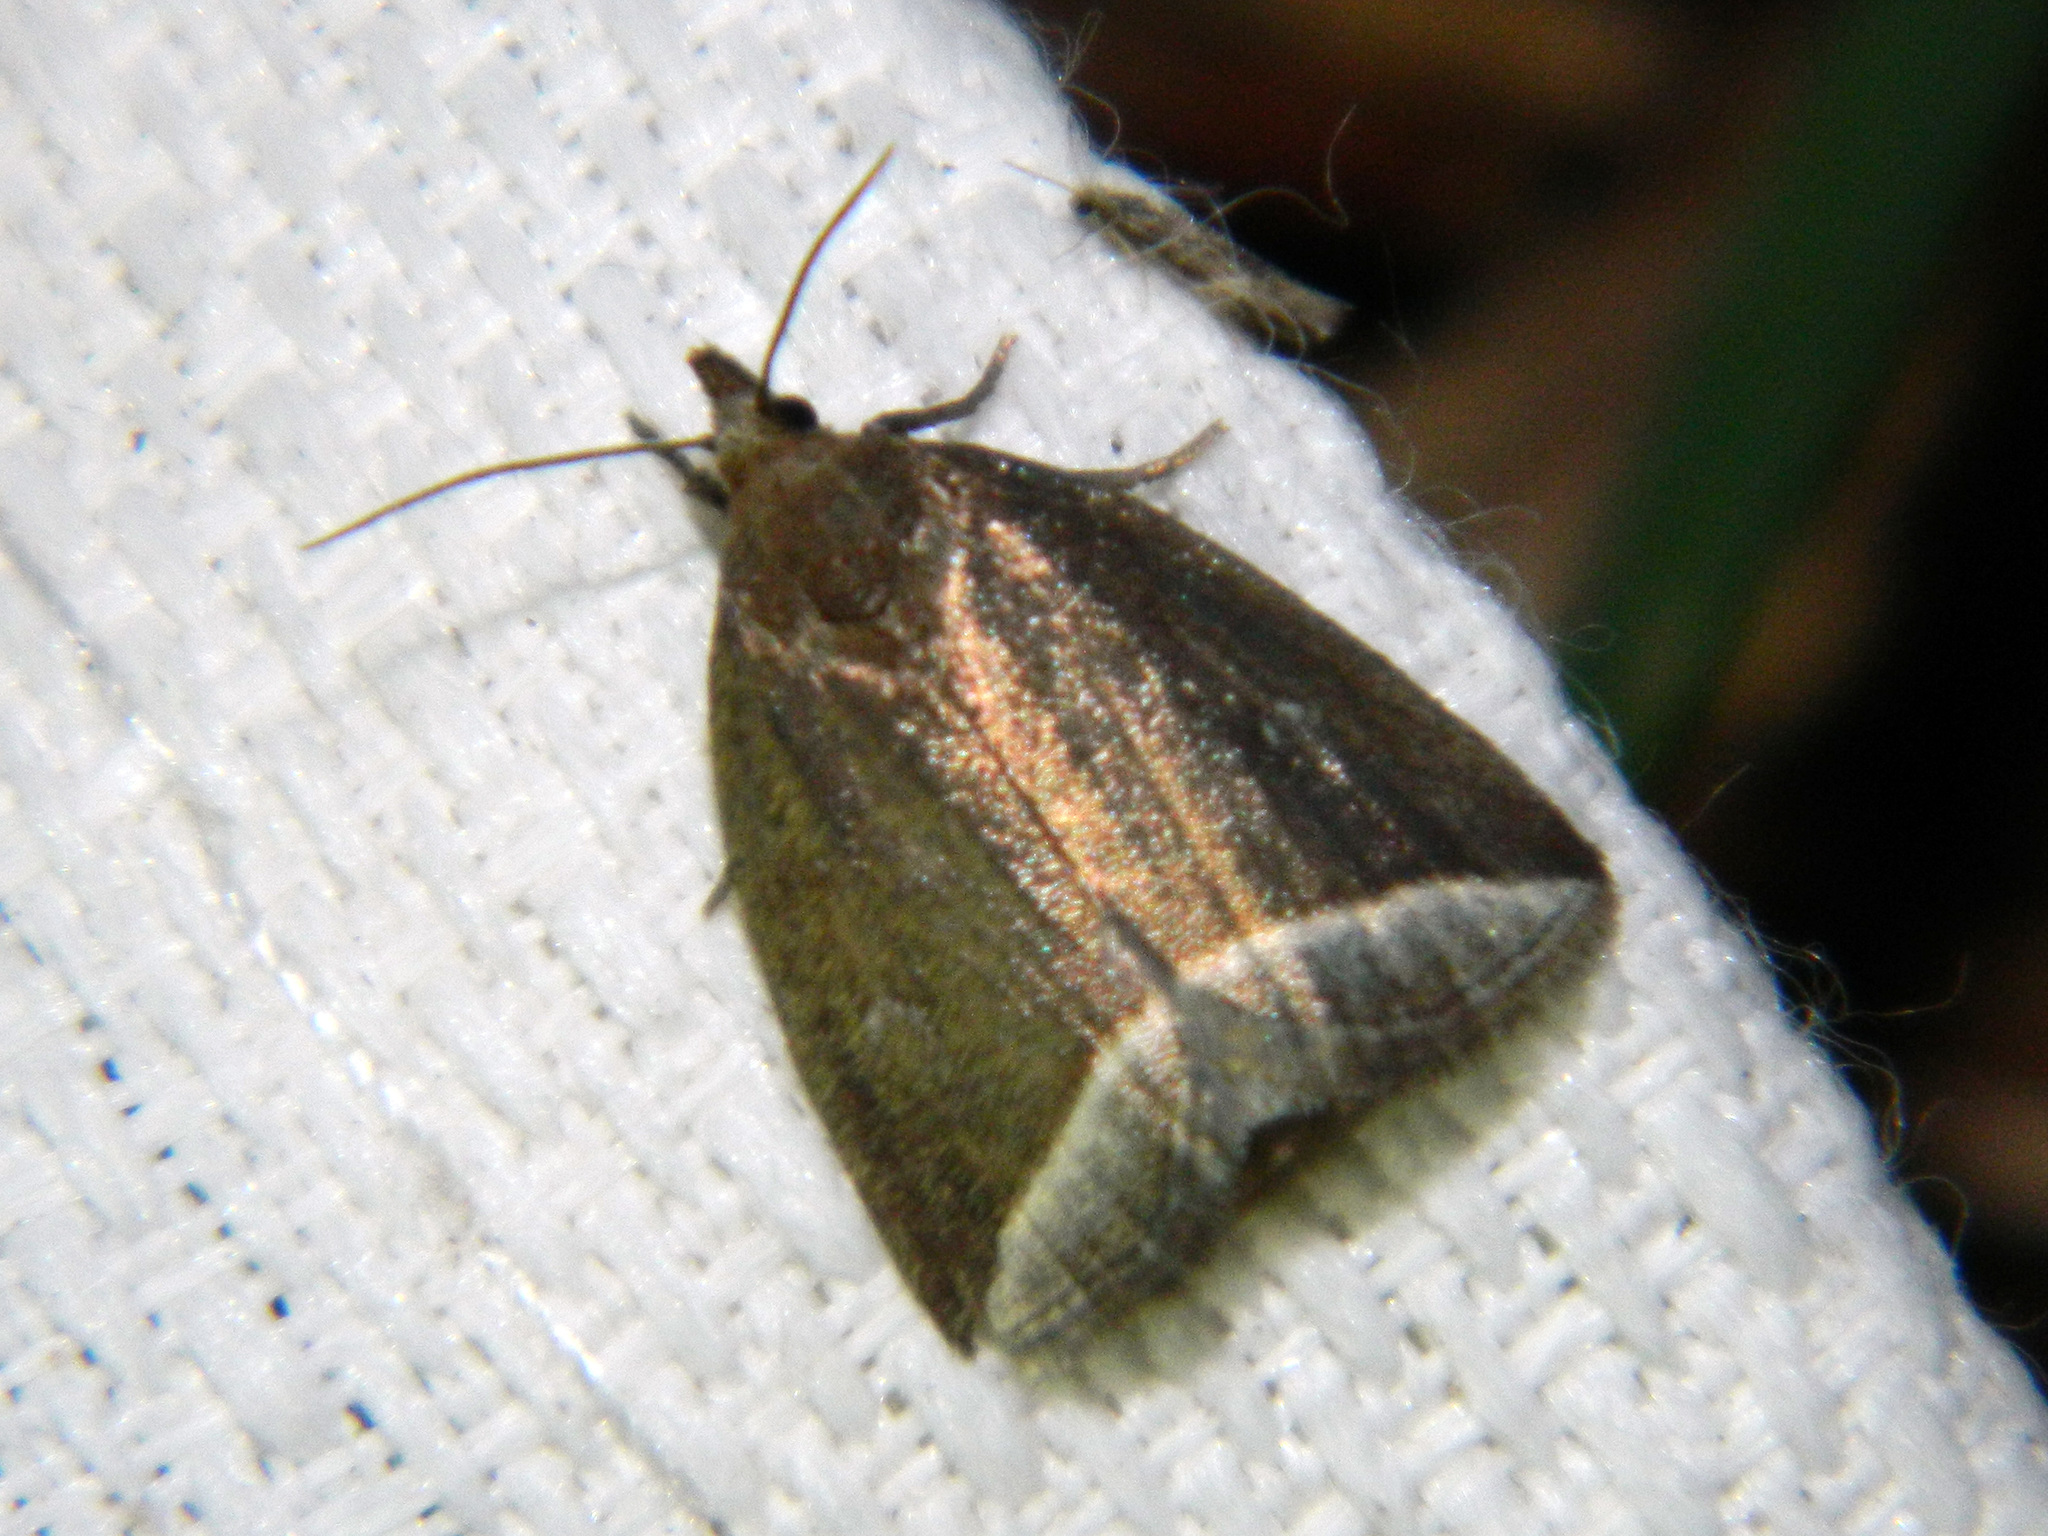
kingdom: Animalia
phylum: Arthropoda
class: Insecta
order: Lepidoptera
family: Erebidae
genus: Capis
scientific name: Capis curvata
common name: Curved halter moth
